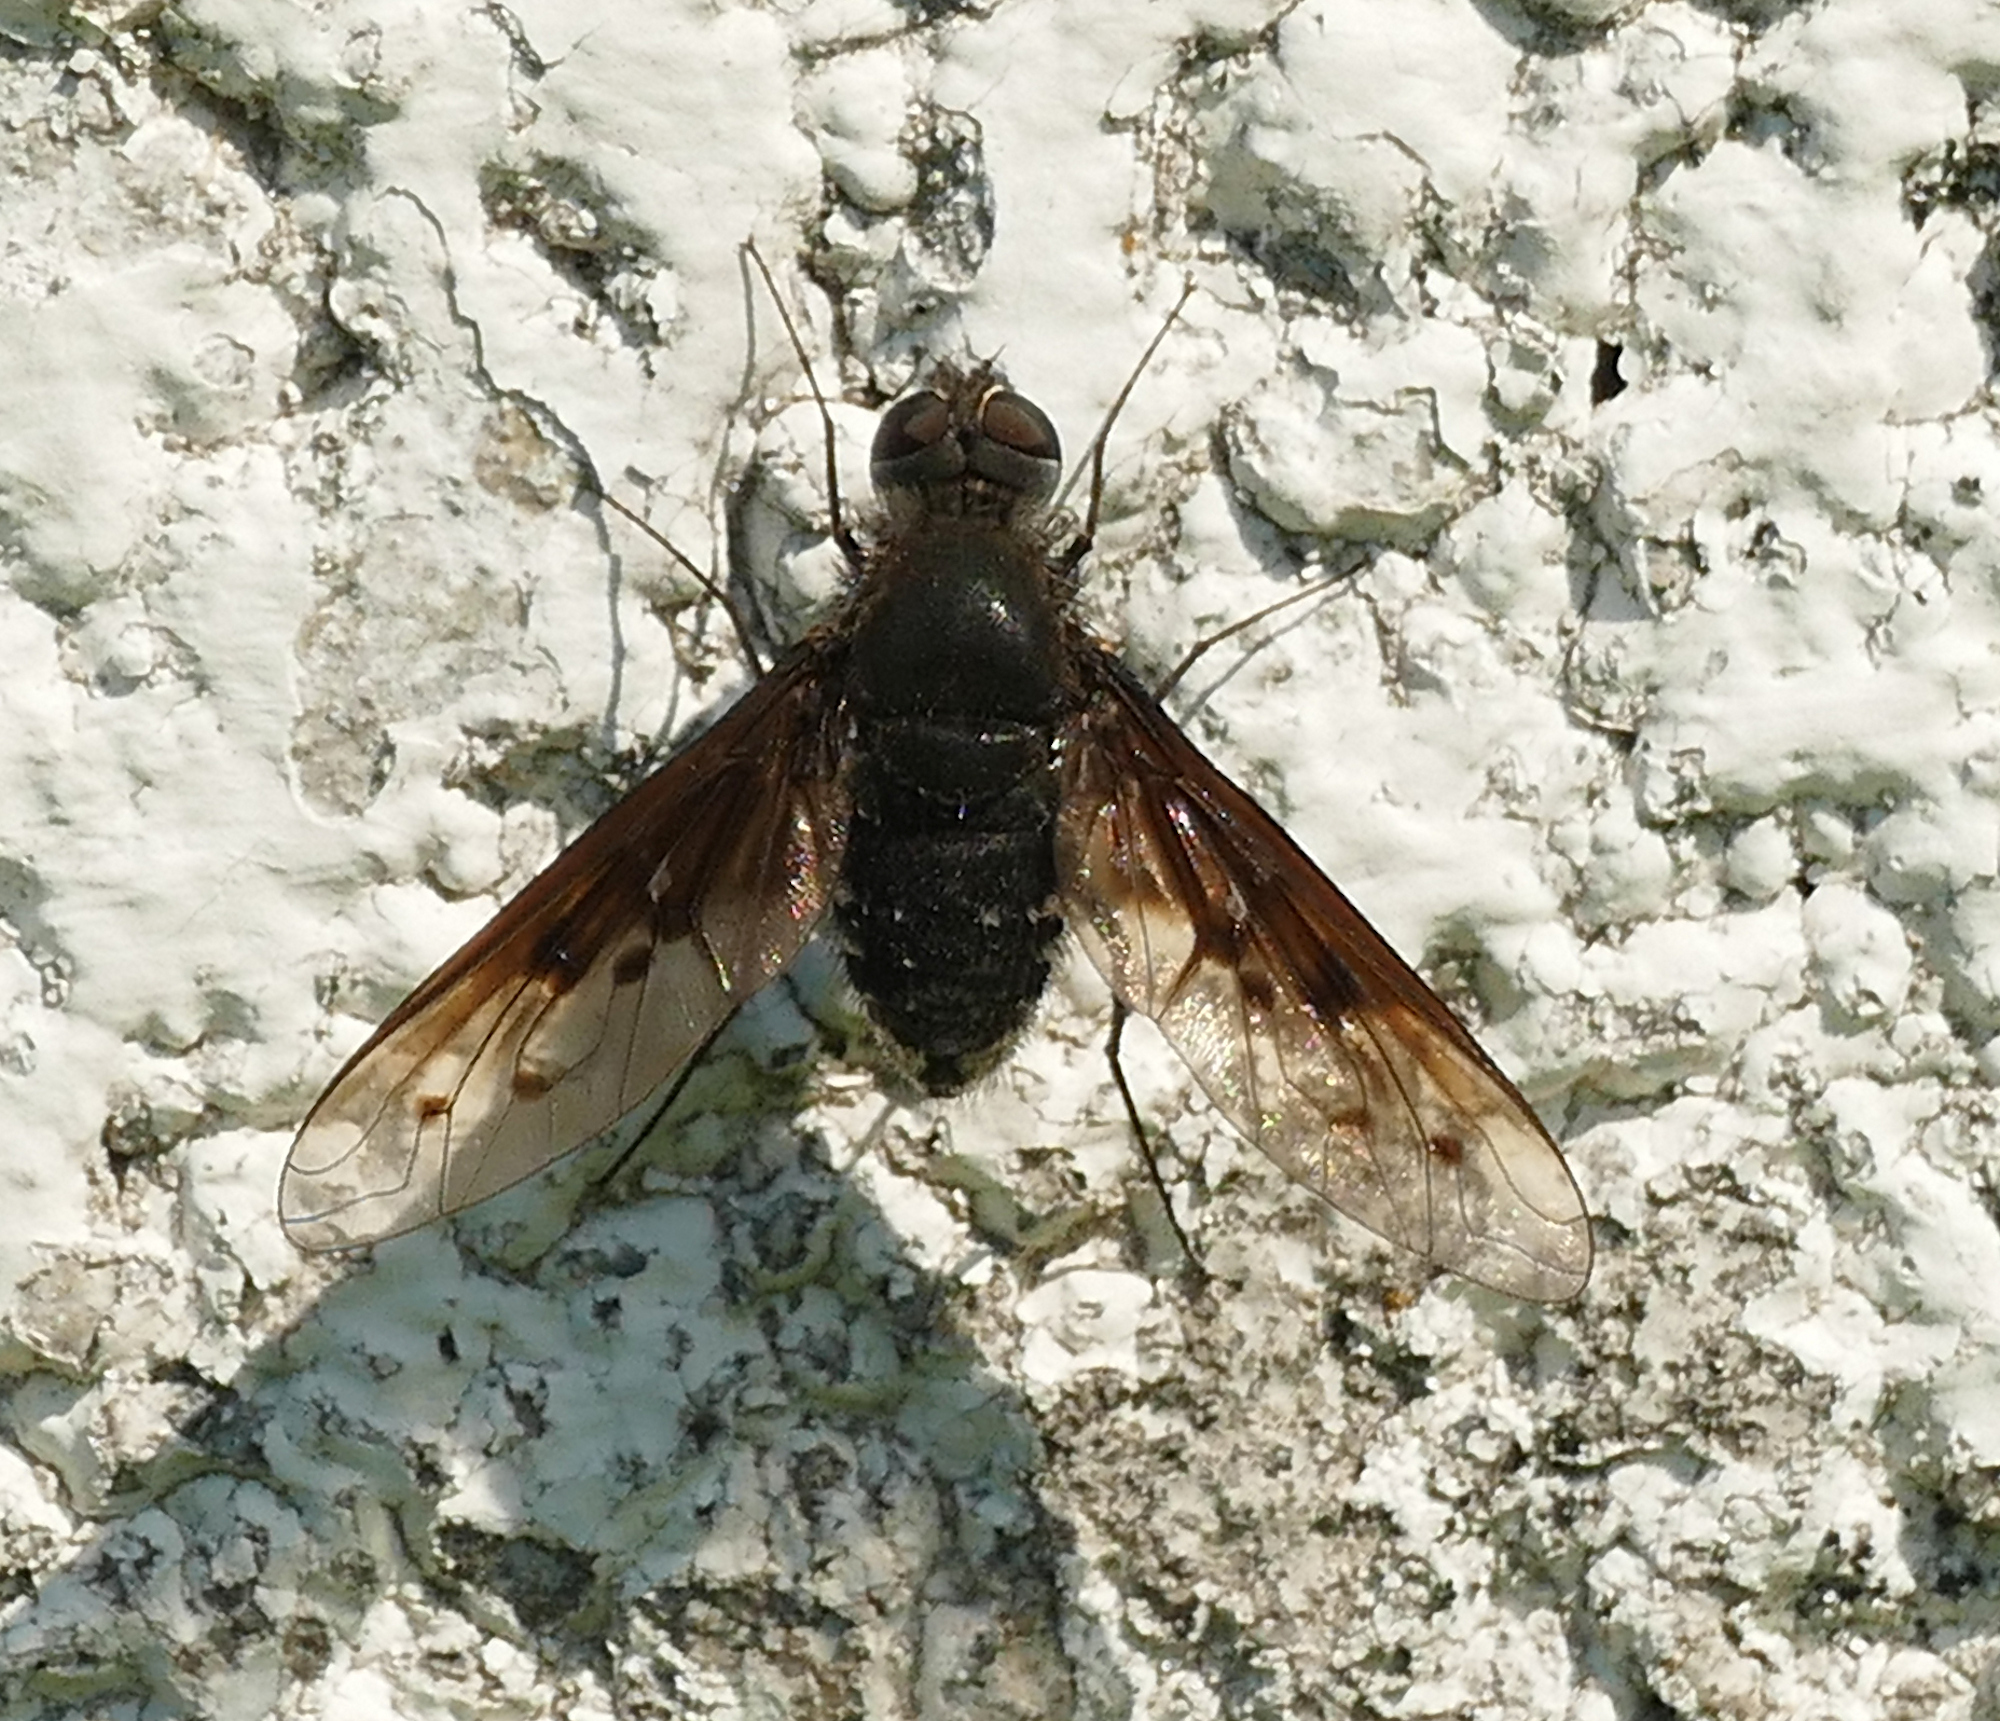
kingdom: Animalia
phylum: Arthropoda
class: Insecta
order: Diptera
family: Bombyliidae
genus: Anthrax
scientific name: Anthrax limatulus
